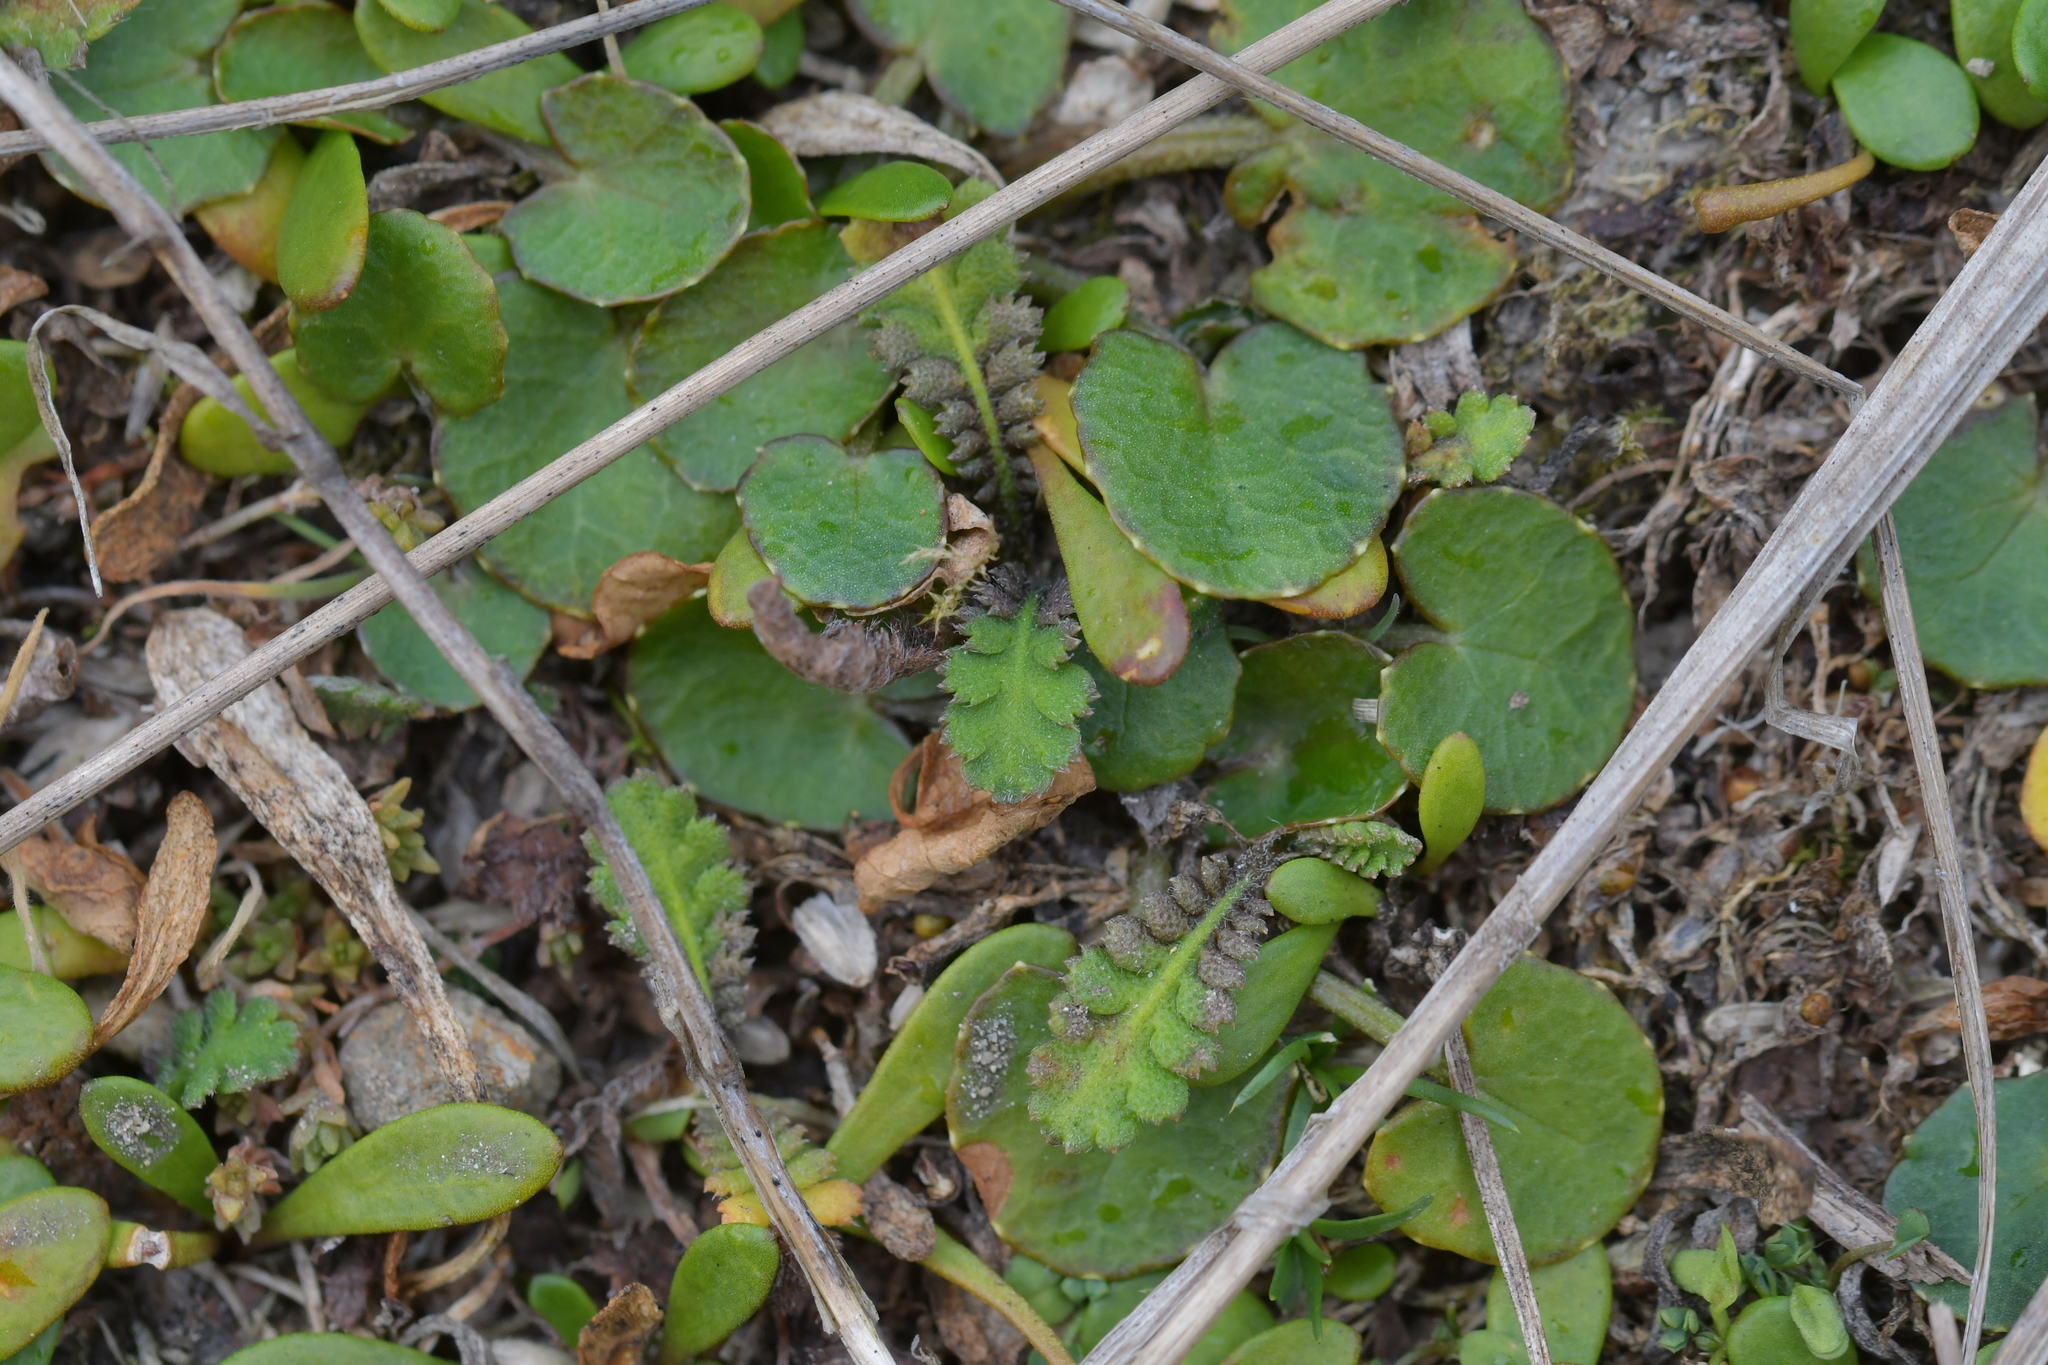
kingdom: Plantae
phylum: Tracheophyta
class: Magnoliopsida
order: Asterales
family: Asteraceae
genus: Leptinella
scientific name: Leptinella squalida
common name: New zealand brass-buttons
